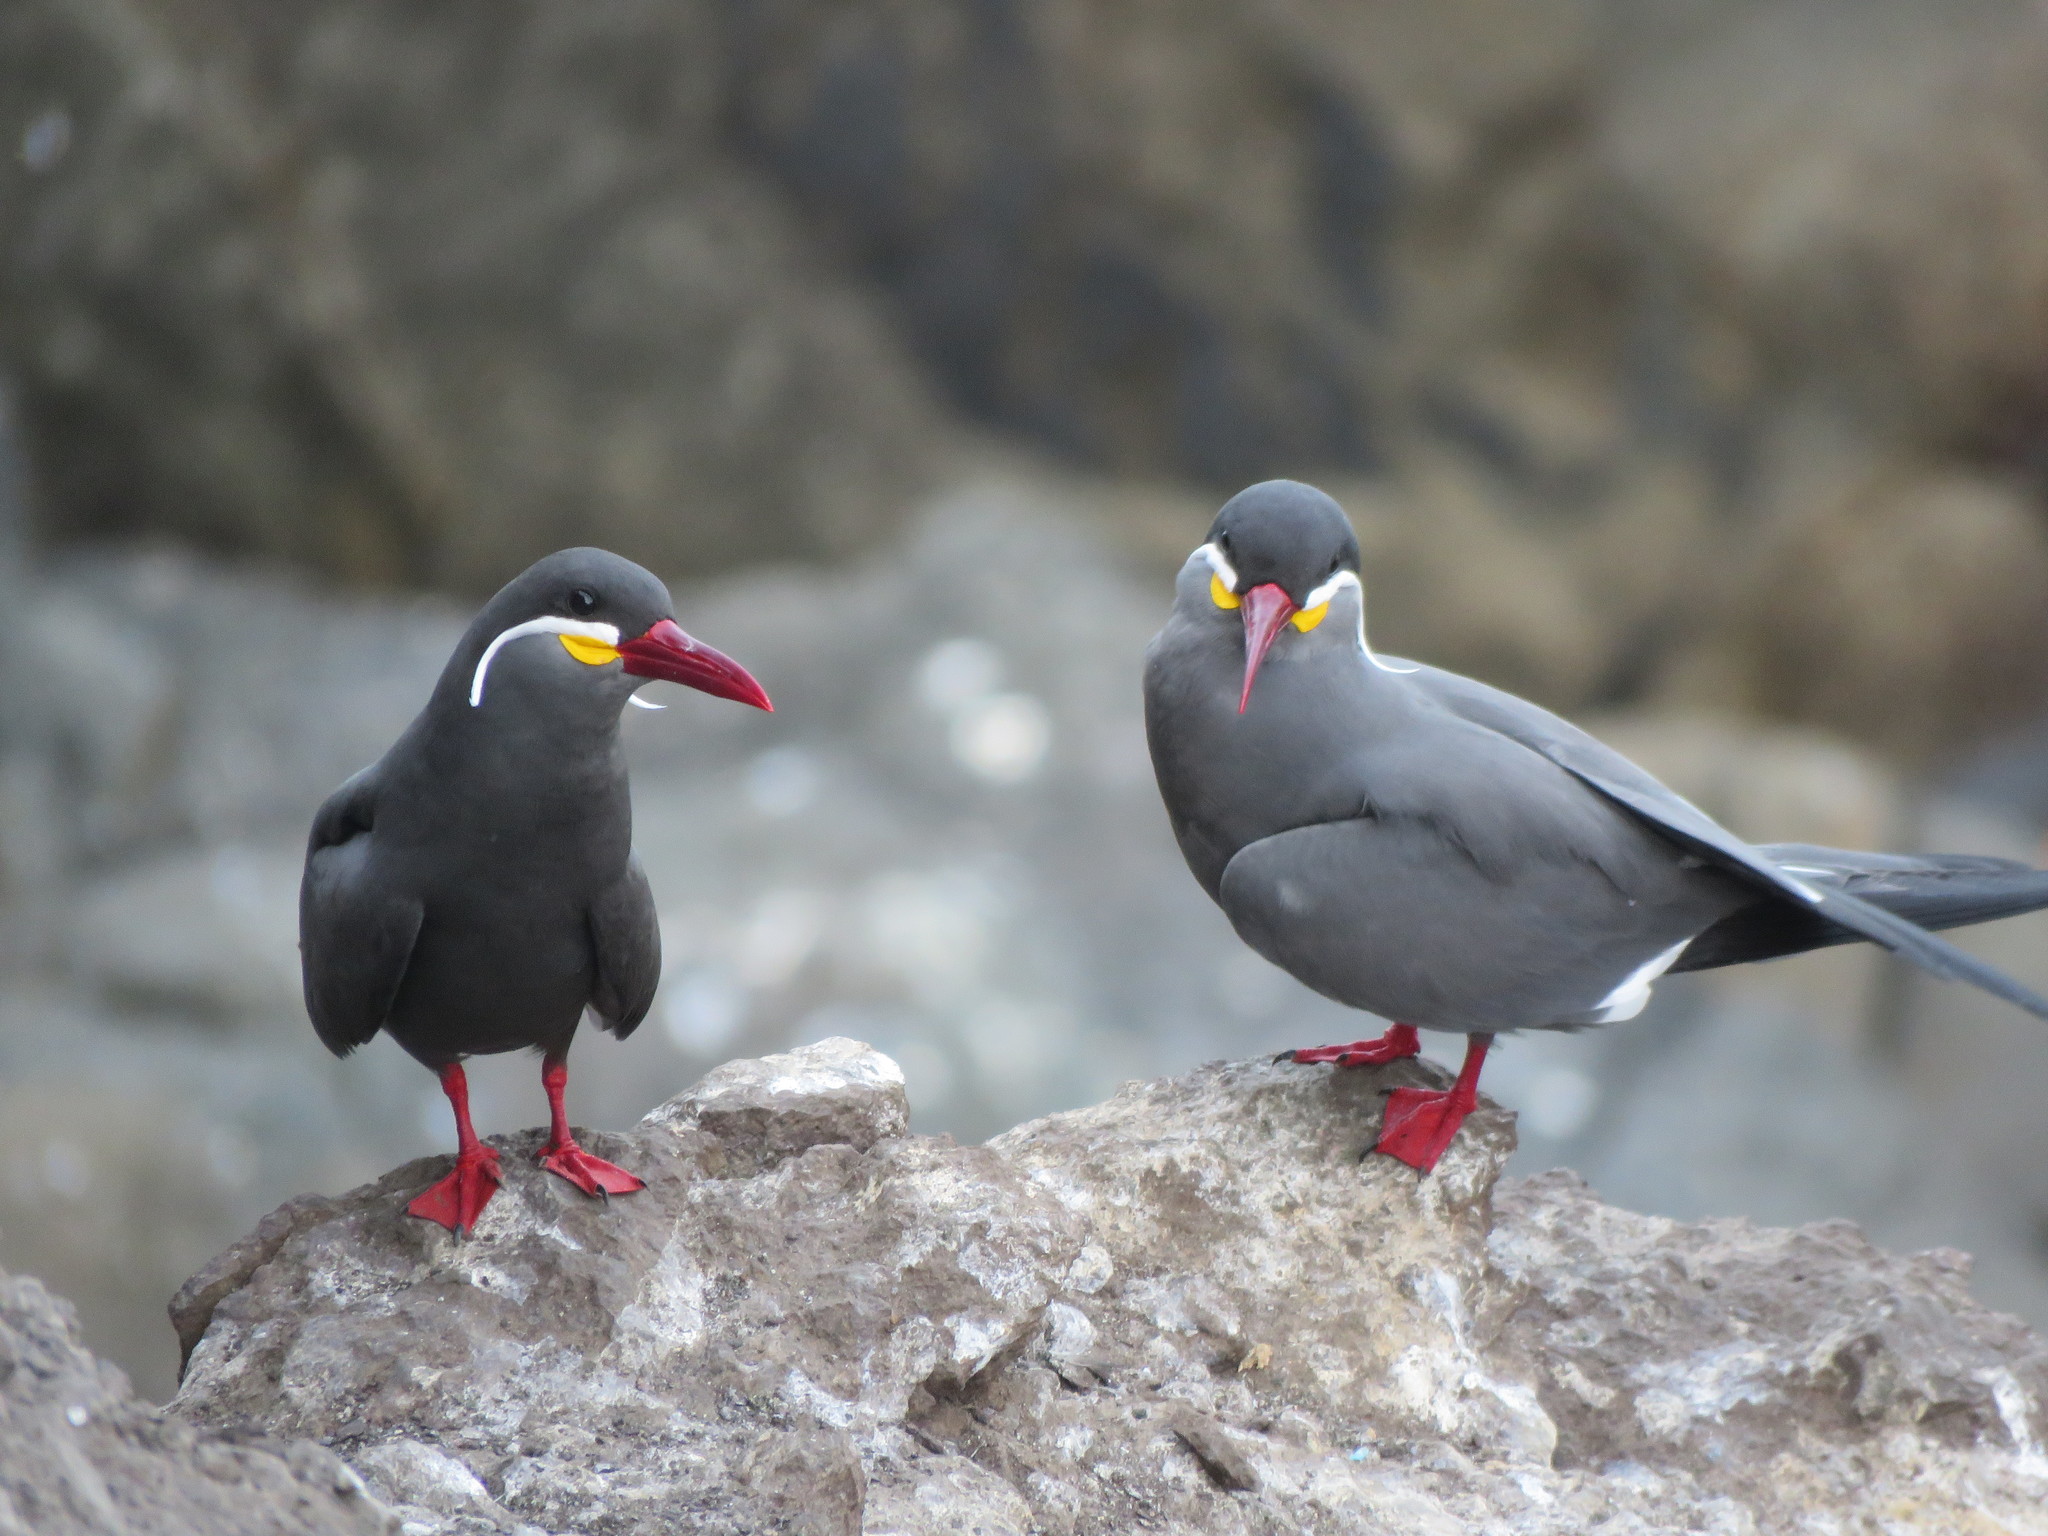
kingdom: Animalia
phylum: Chordata
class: Aves
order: Charadriiformes
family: Laridae
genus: Larosterna
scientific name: Larosterna inca
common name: Inca tern
